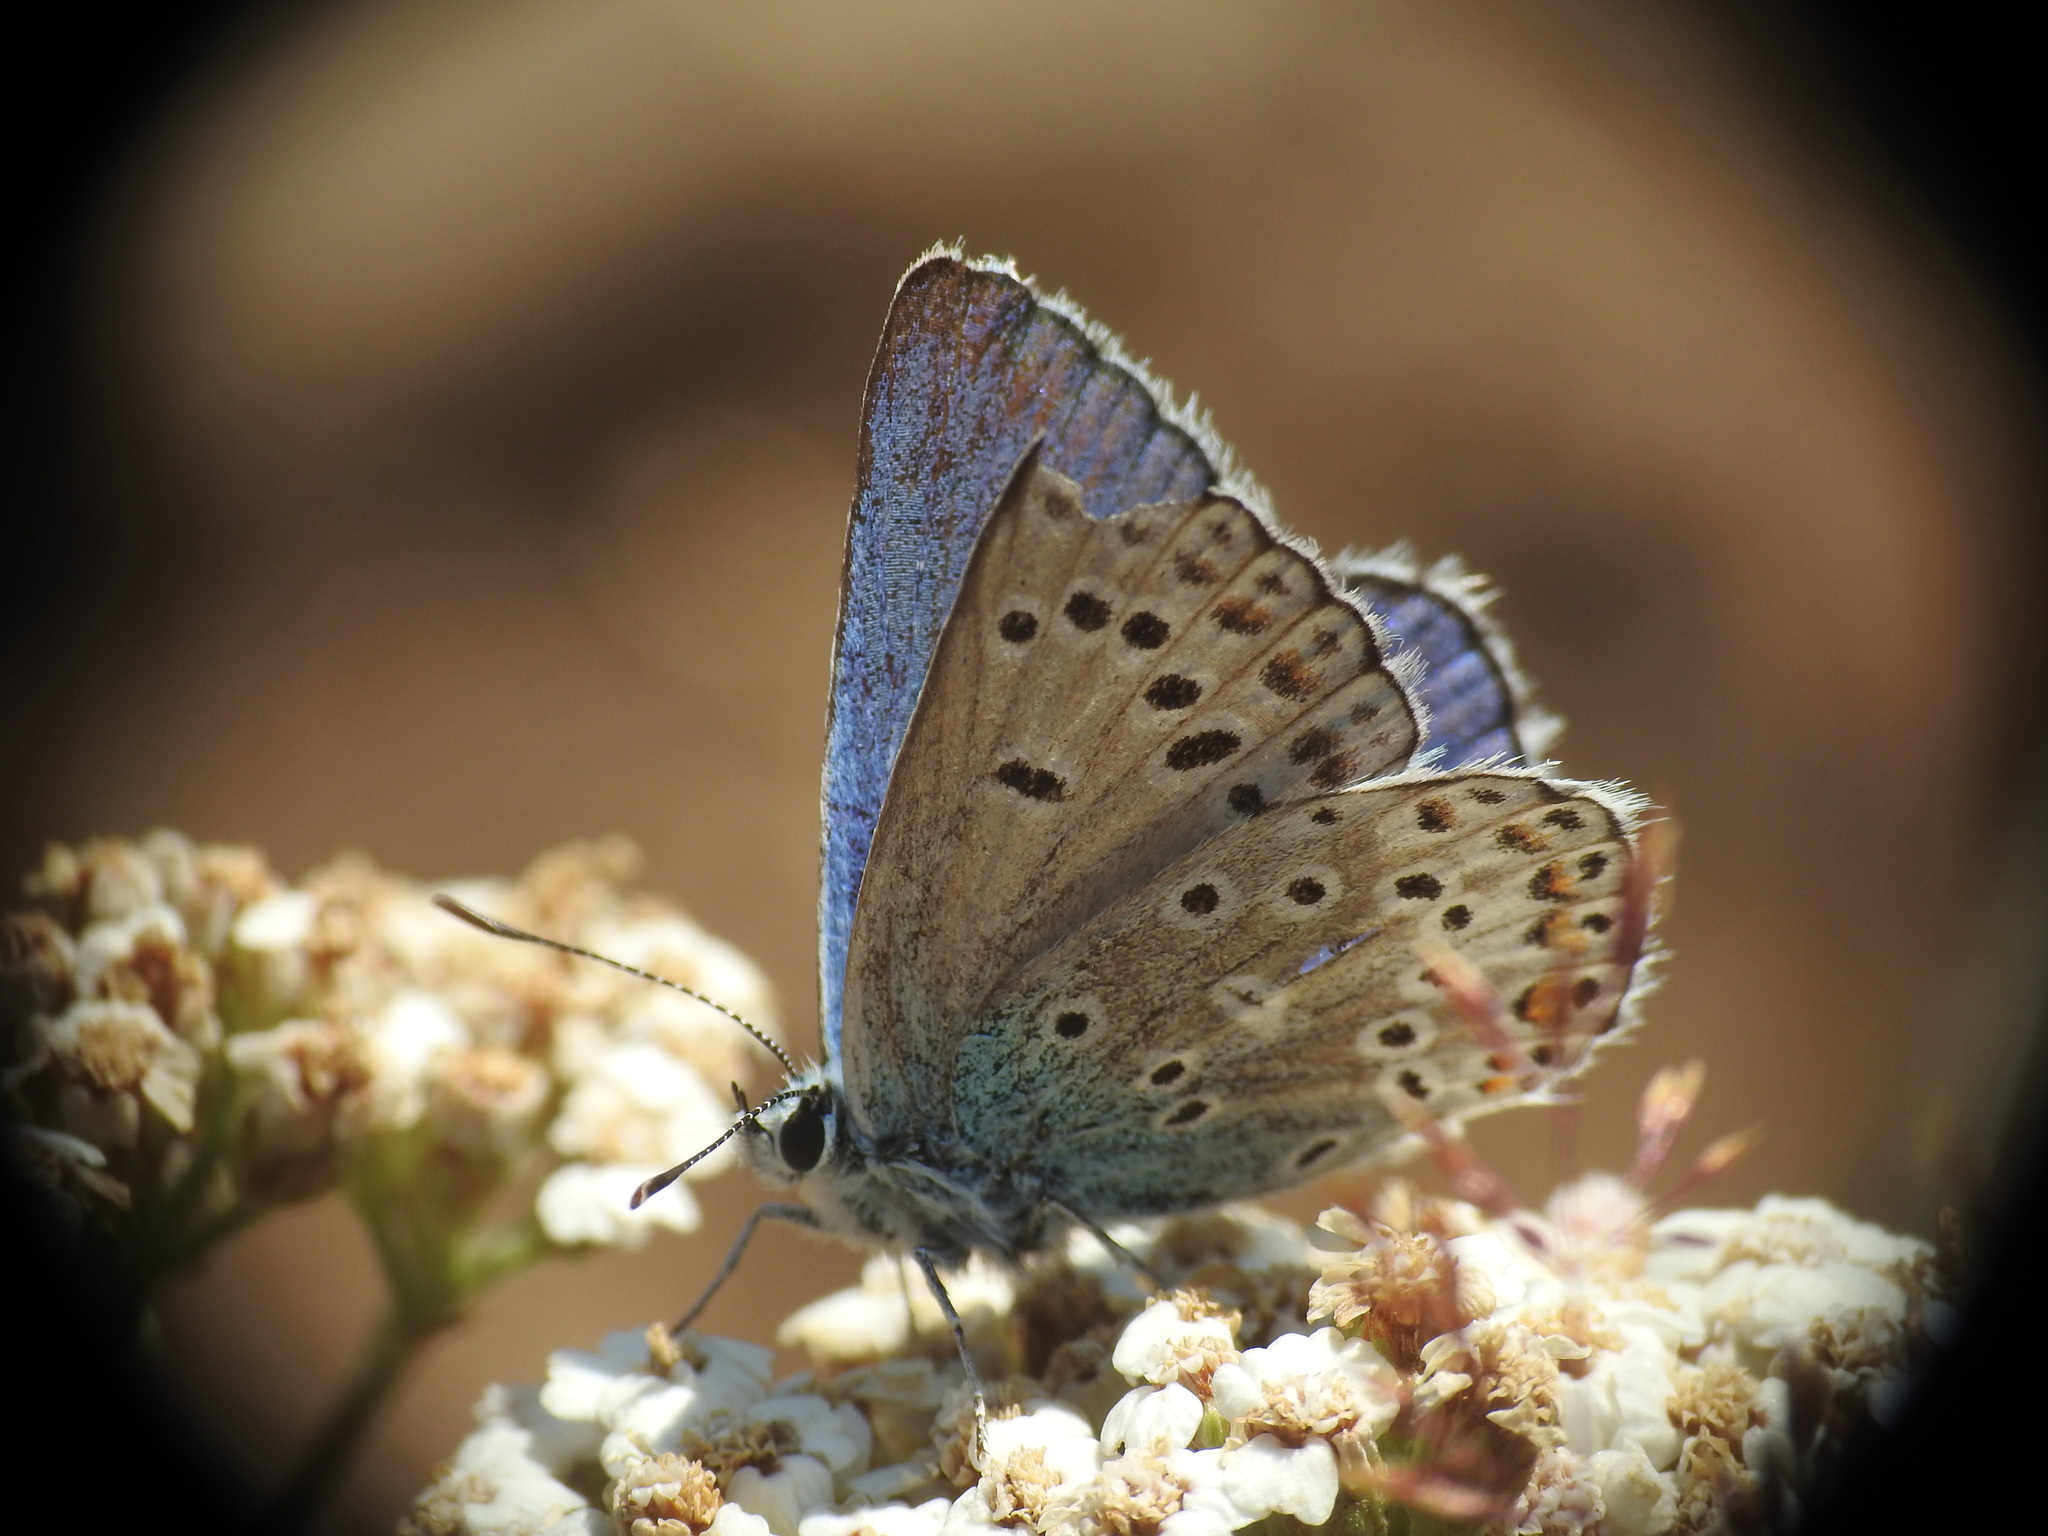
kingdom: Animalia
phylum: Arthropoda
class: Insecta
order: Lepidoptera
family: Lycaenidae
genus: Plebicula
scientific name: Plebicula escheri
